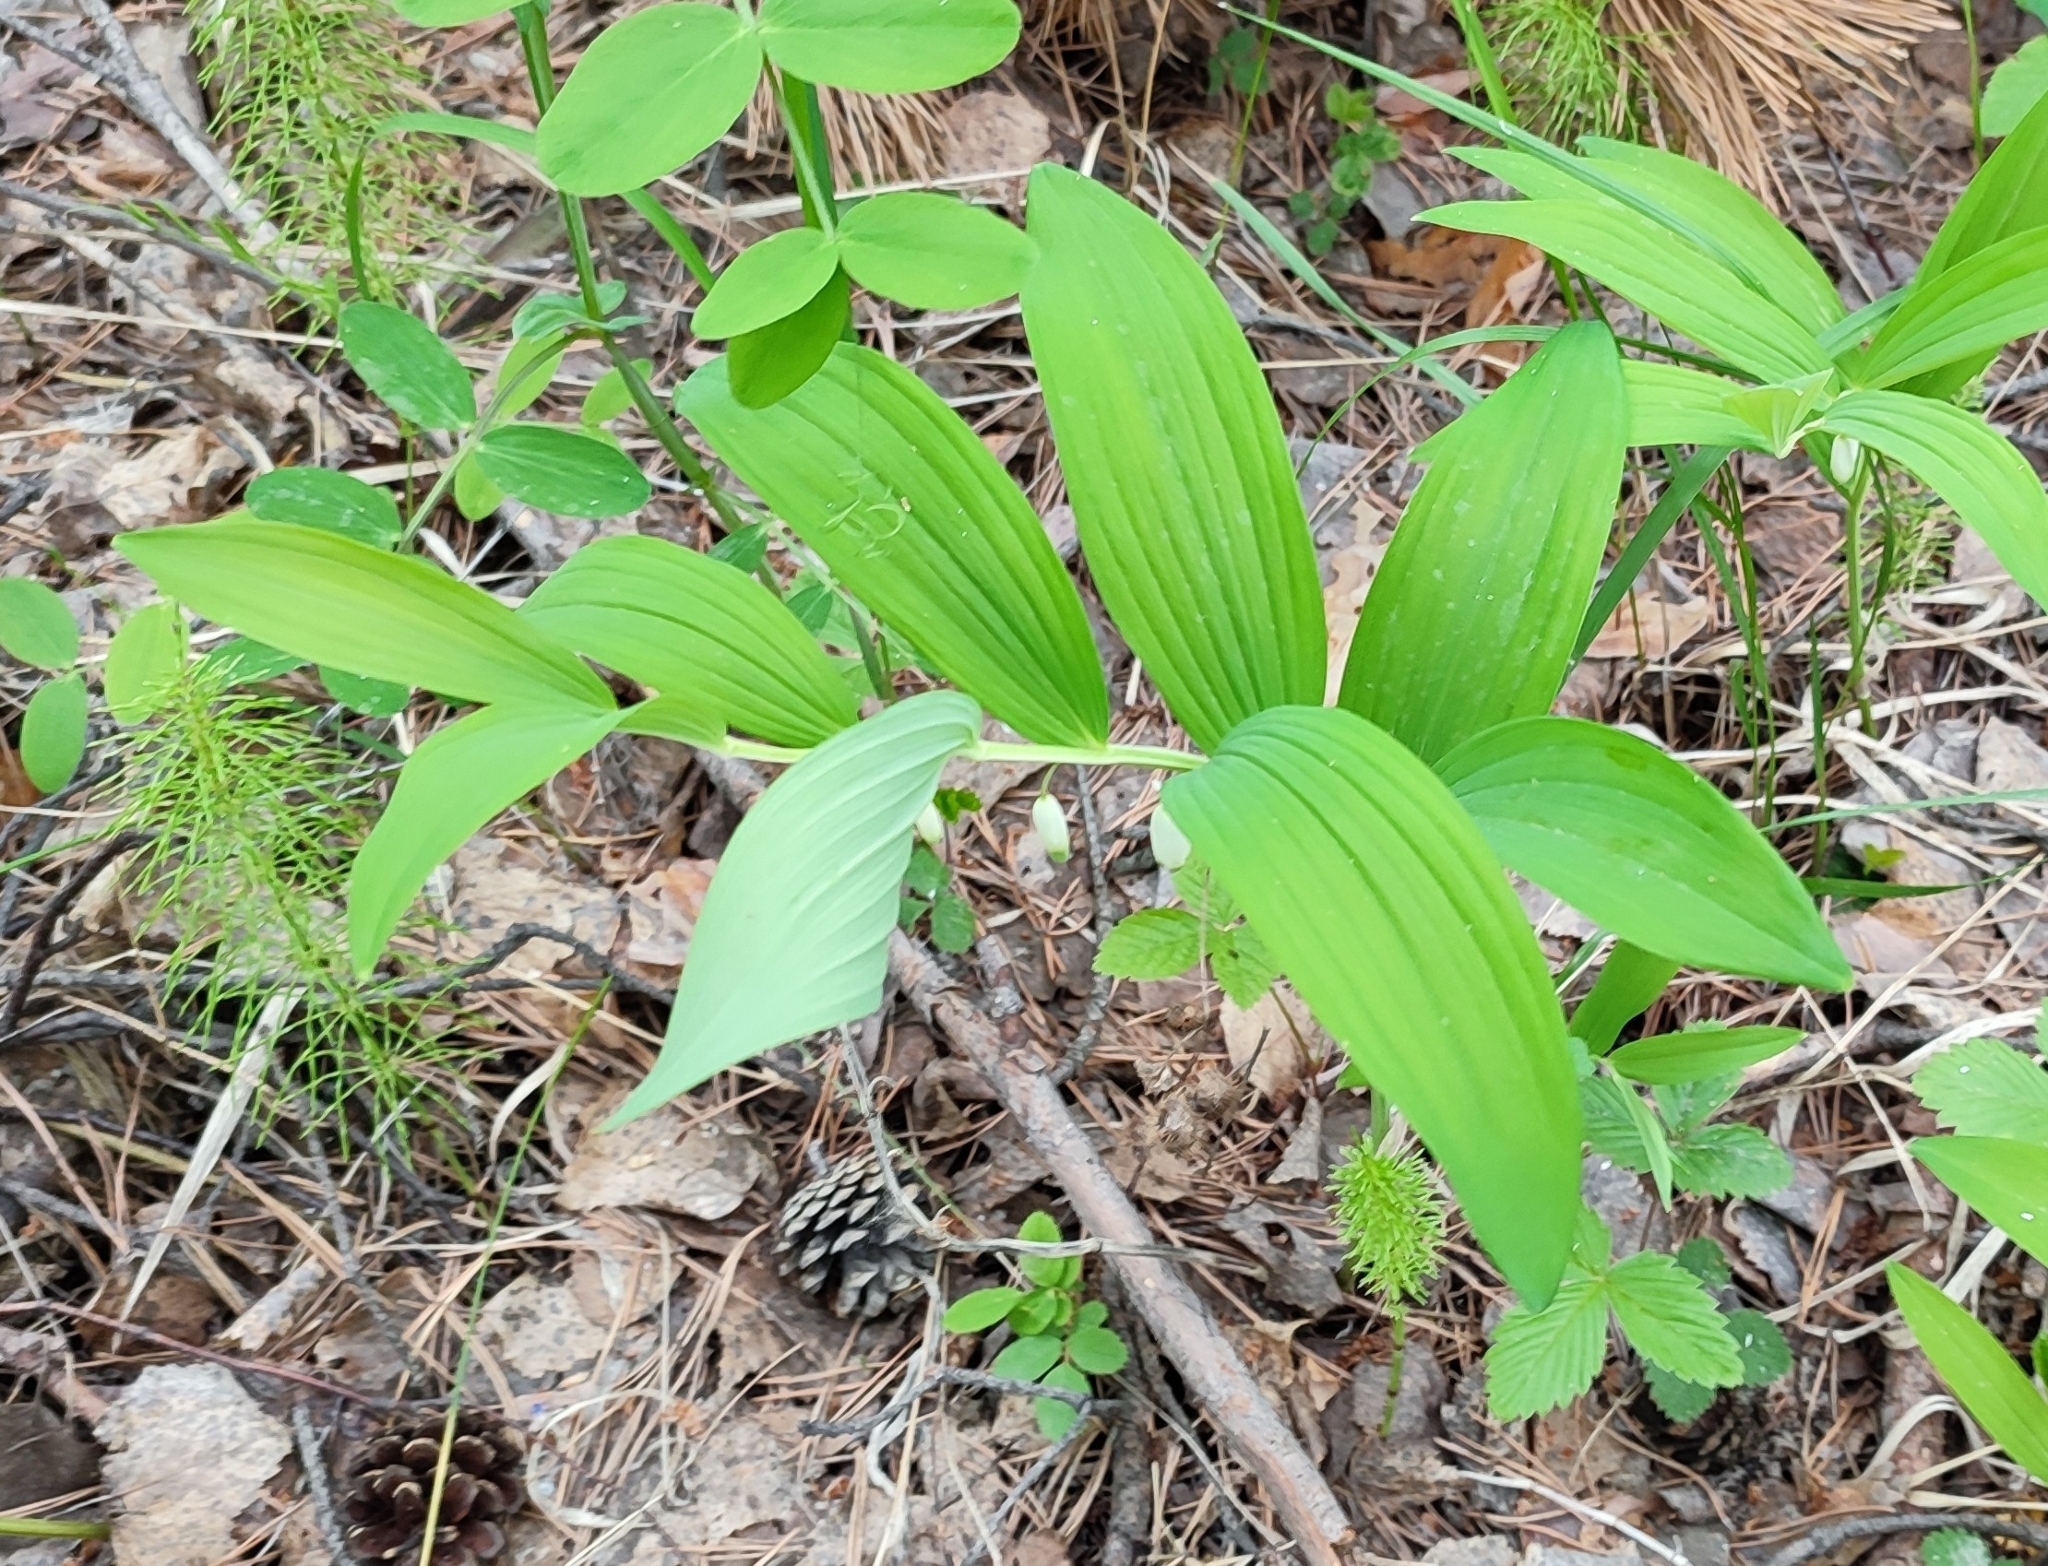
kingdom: Plantae
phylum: Tracheophyta
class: Liliopsida
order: Asparagales
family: Asparagaceae
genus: Polygonatum
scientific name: Polygonatum odoratum
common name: Angular solomon's-seal
